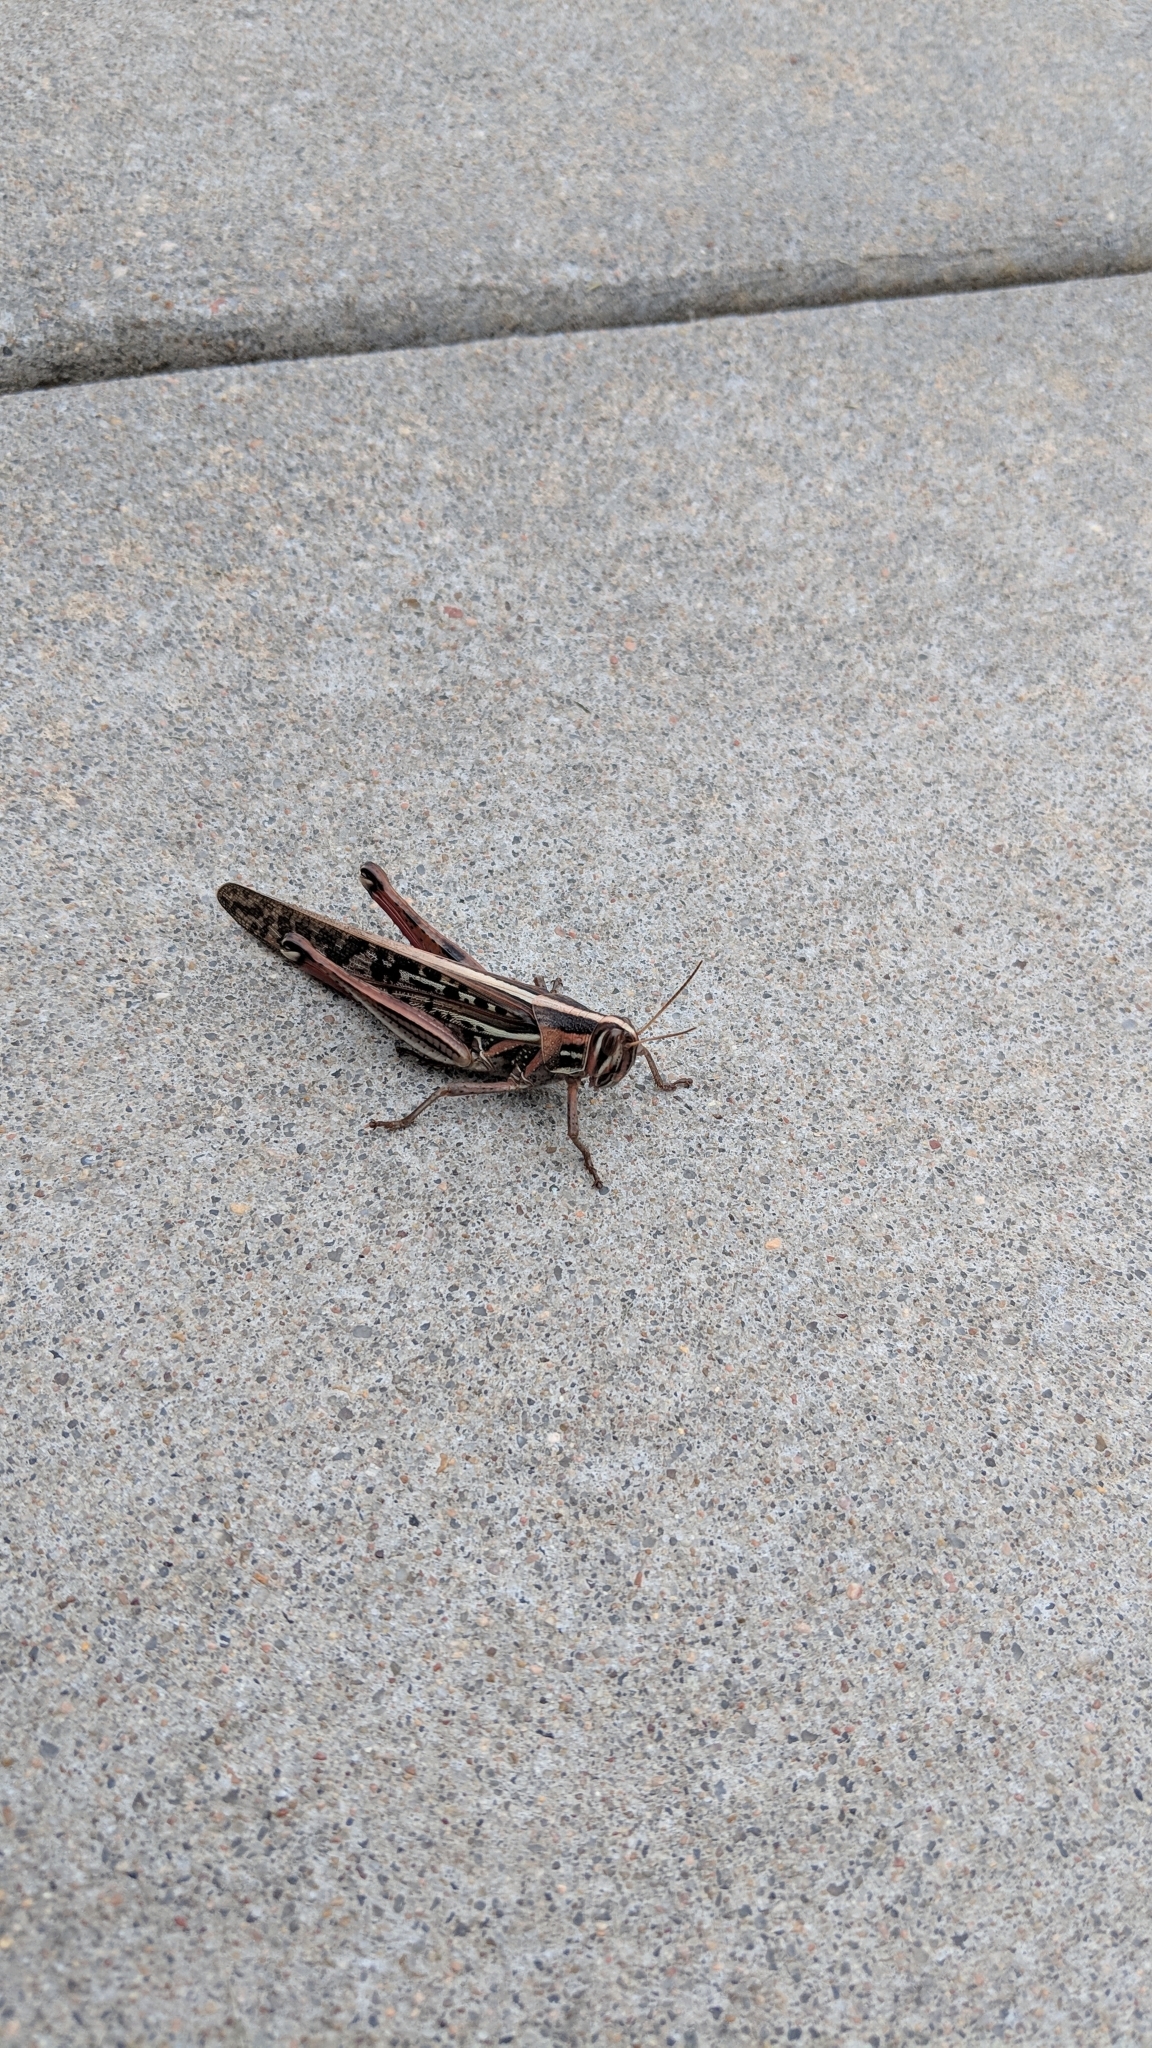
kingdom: Animalia
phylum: Arthropoda
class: Insecta
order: Orthoptera
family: Acrididae
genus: Schistocerca
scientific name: Schistocerca americana
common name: American bird locust
